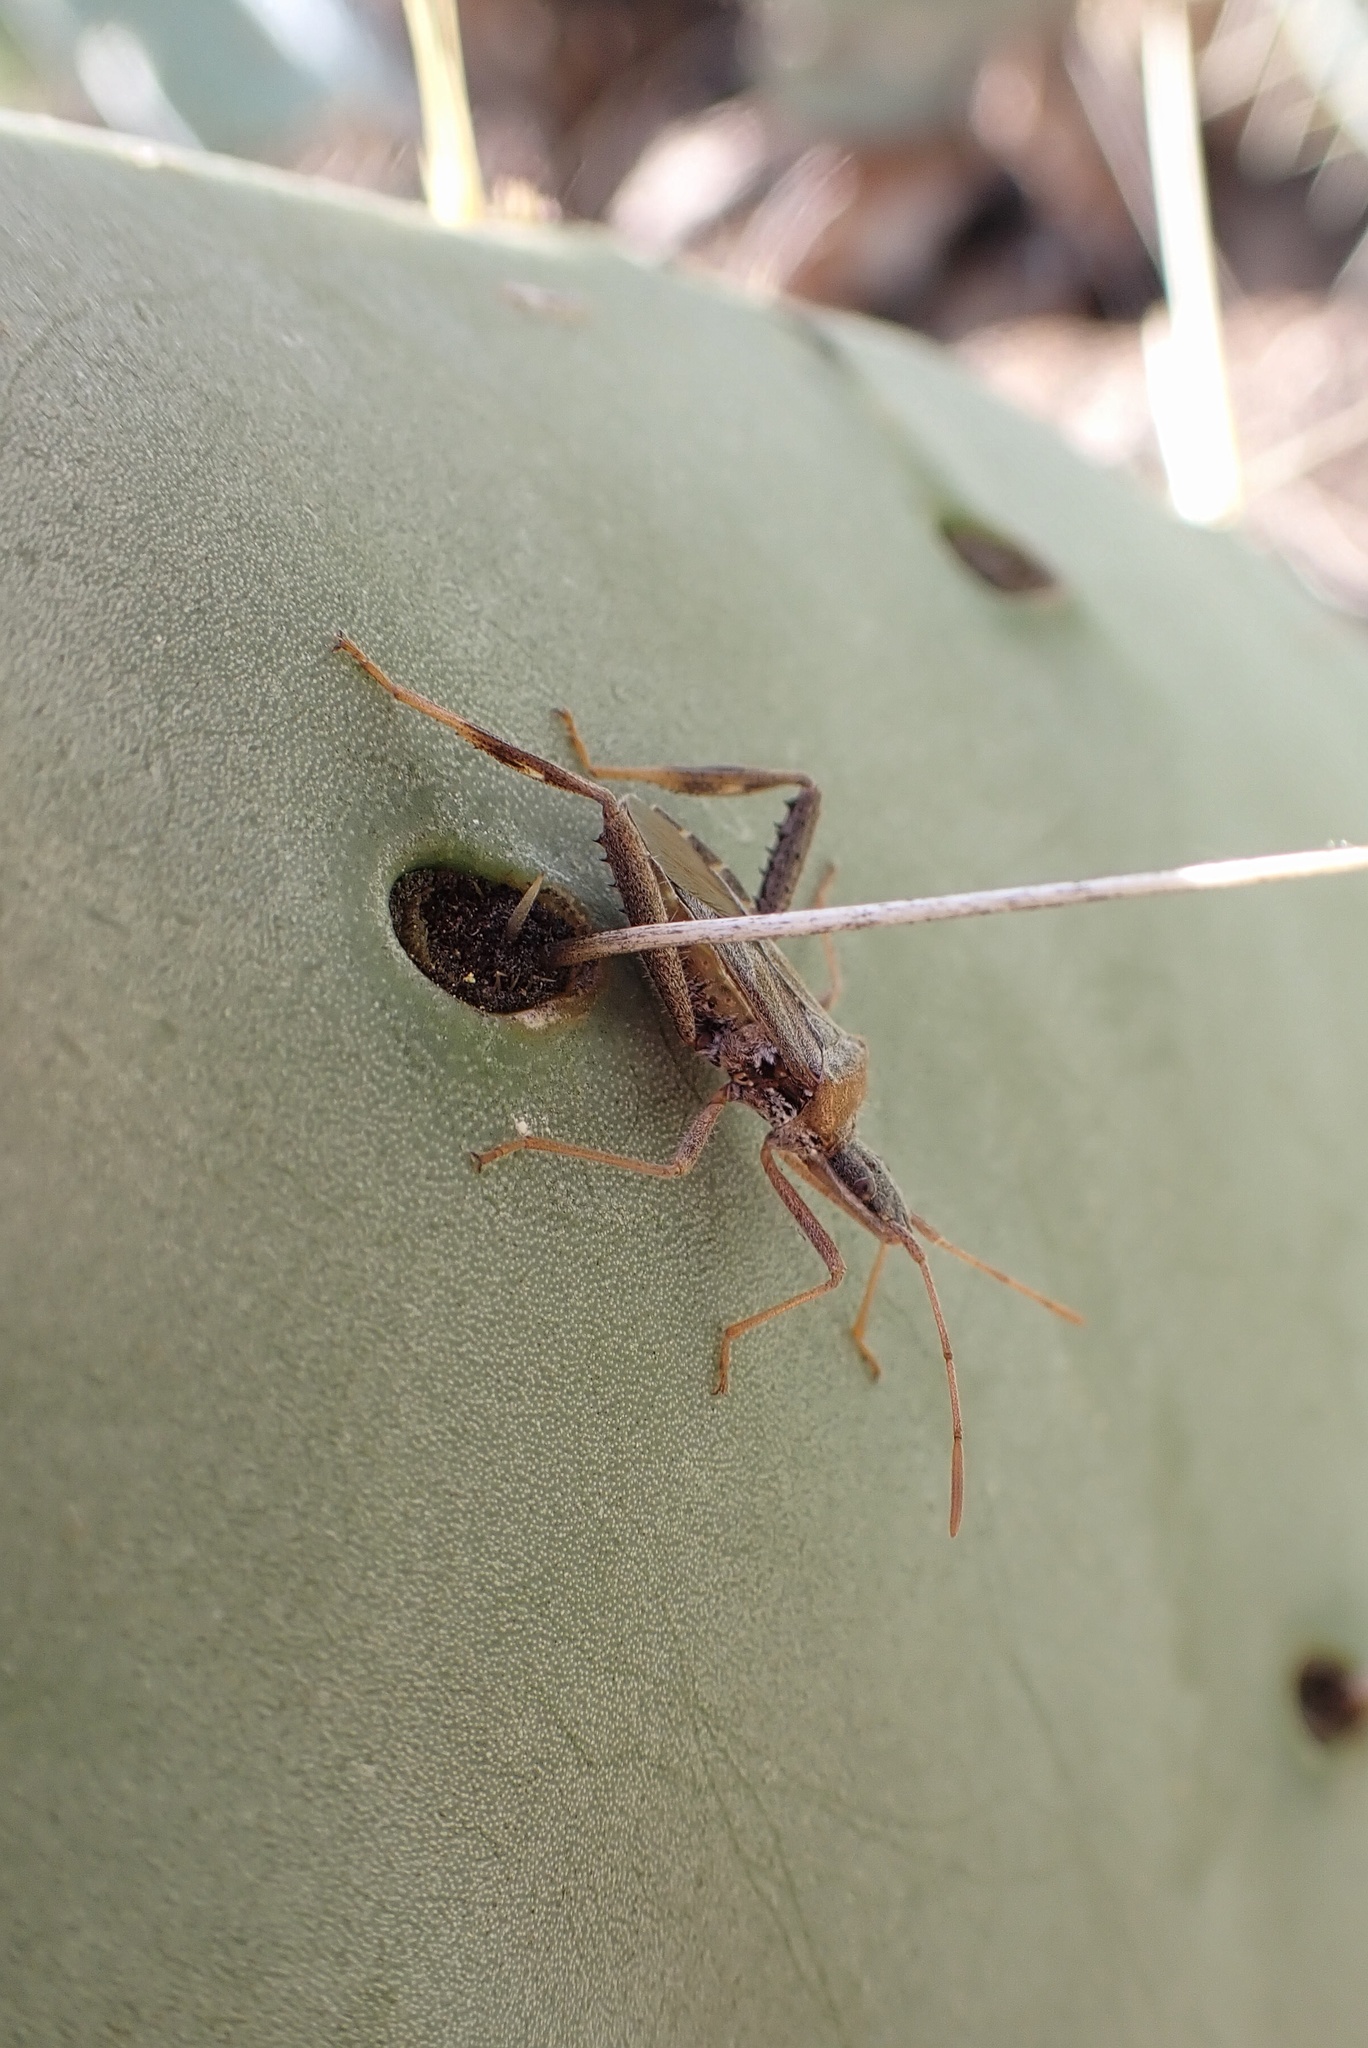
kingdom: Animalia
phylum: Arthropoda
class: Insecta
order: Hemiptera
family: Coreidae
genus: Narnia
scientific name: Narnia femorata
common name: Leaf-footed cactus bug
